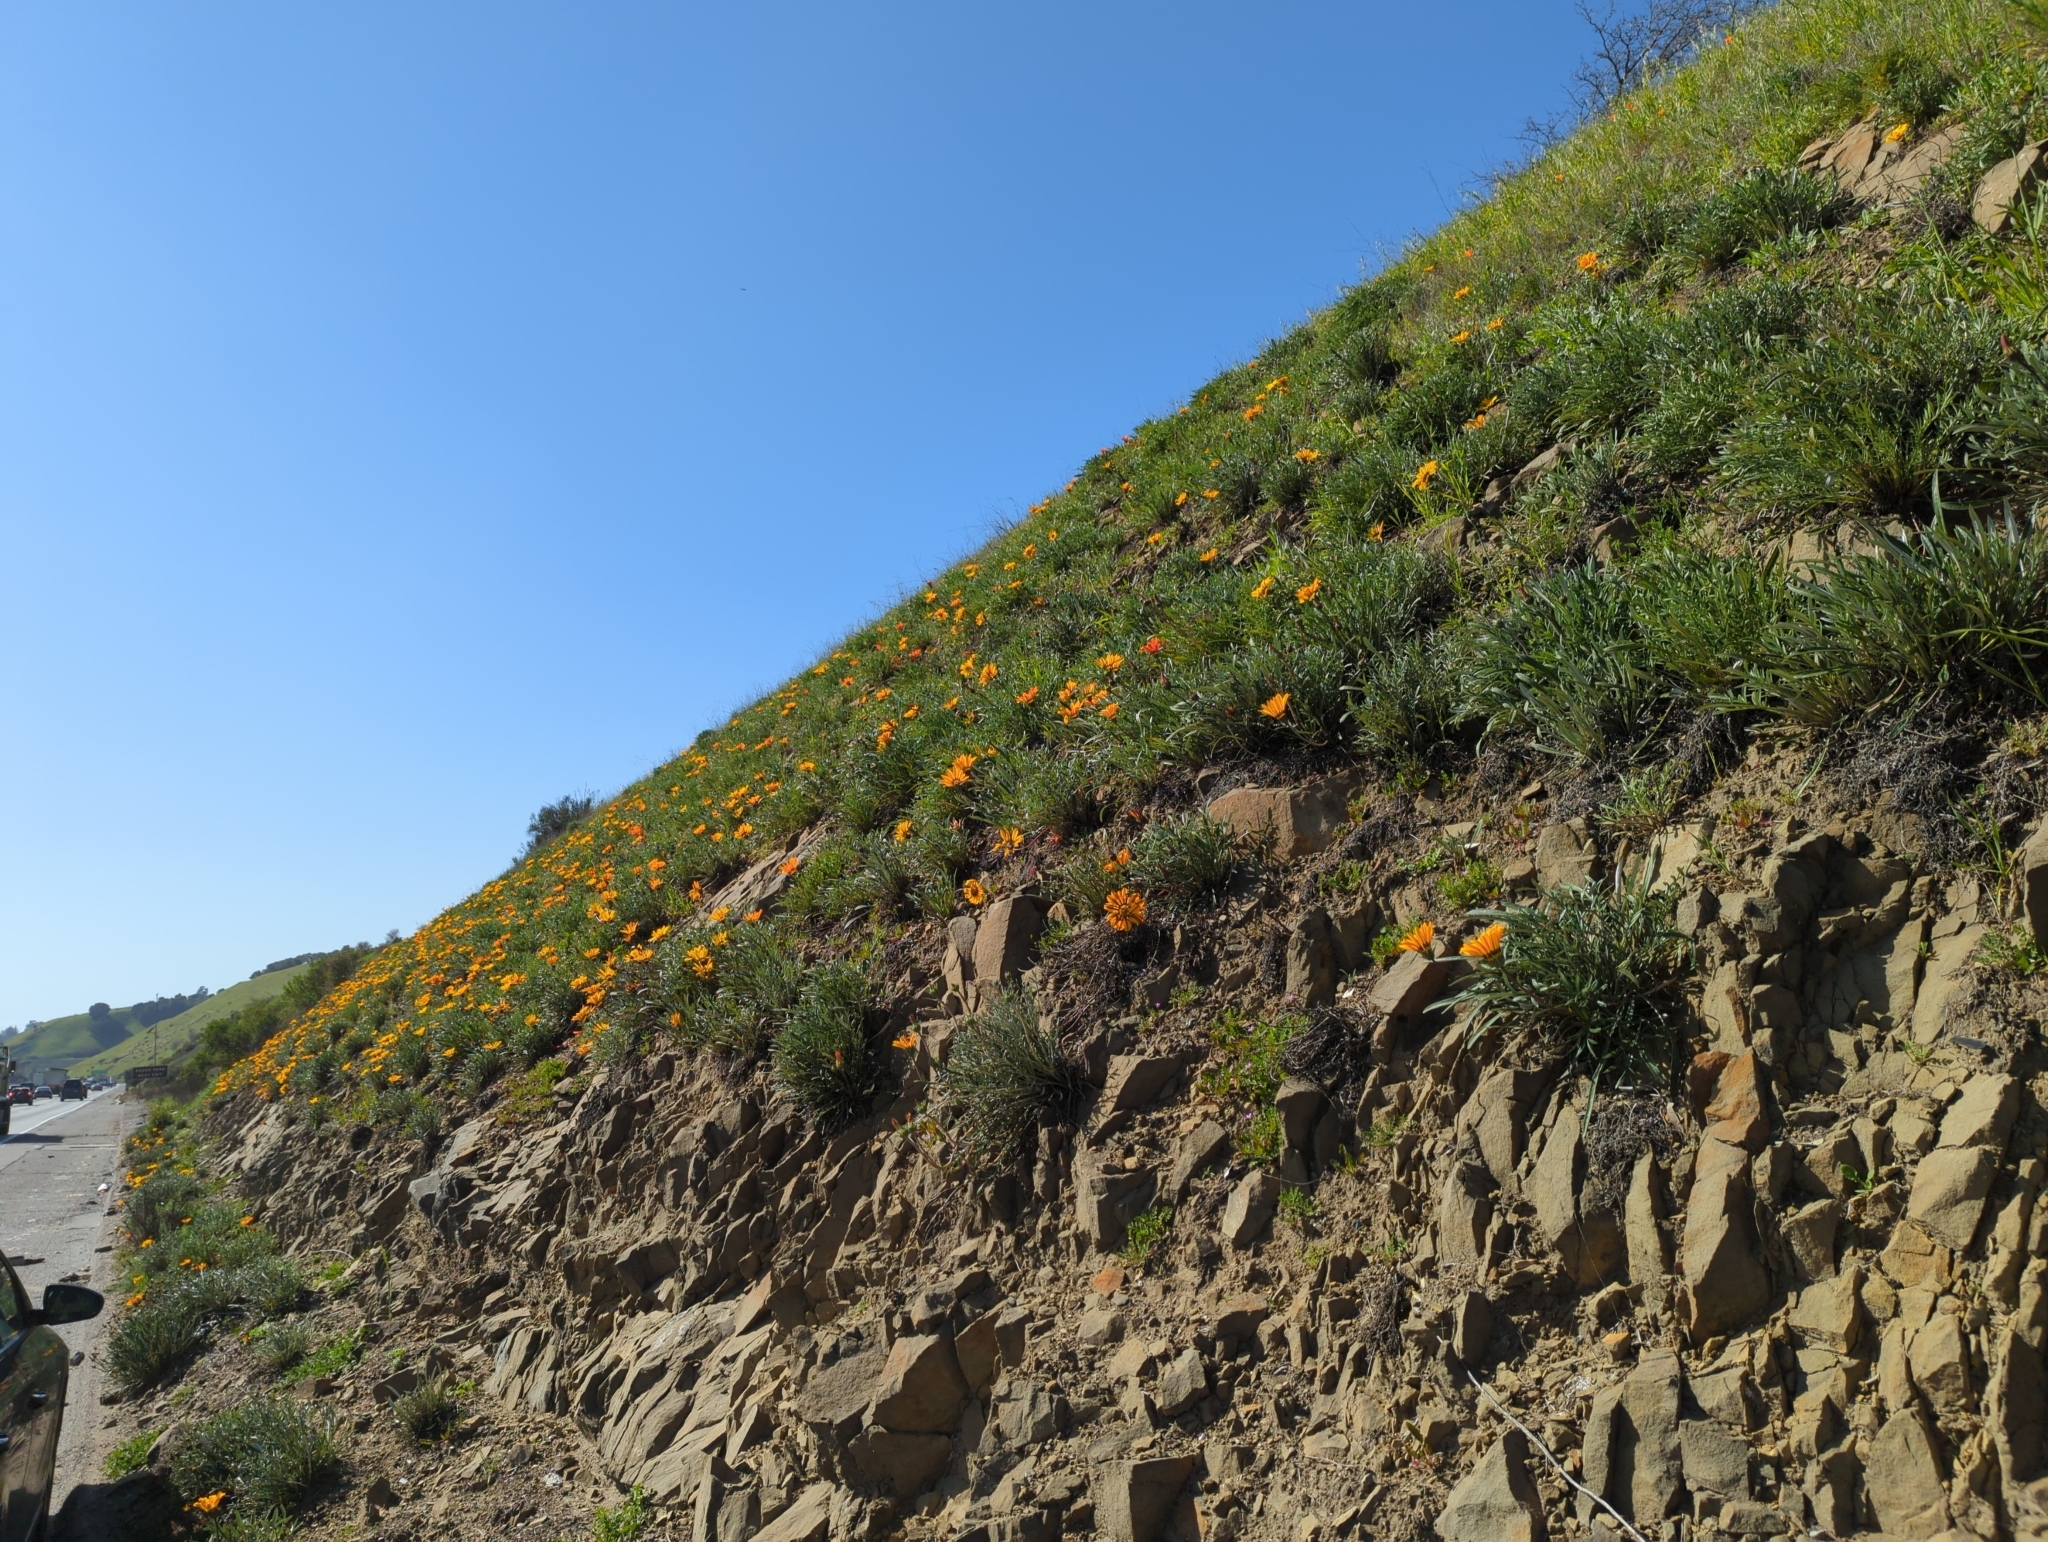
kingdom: Plantae
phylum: Tracheophyta
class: Magnoliopsida
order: Asterales
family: Asteraceae
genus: Gazania
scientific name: Gazania linearis
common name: Treasureflower
